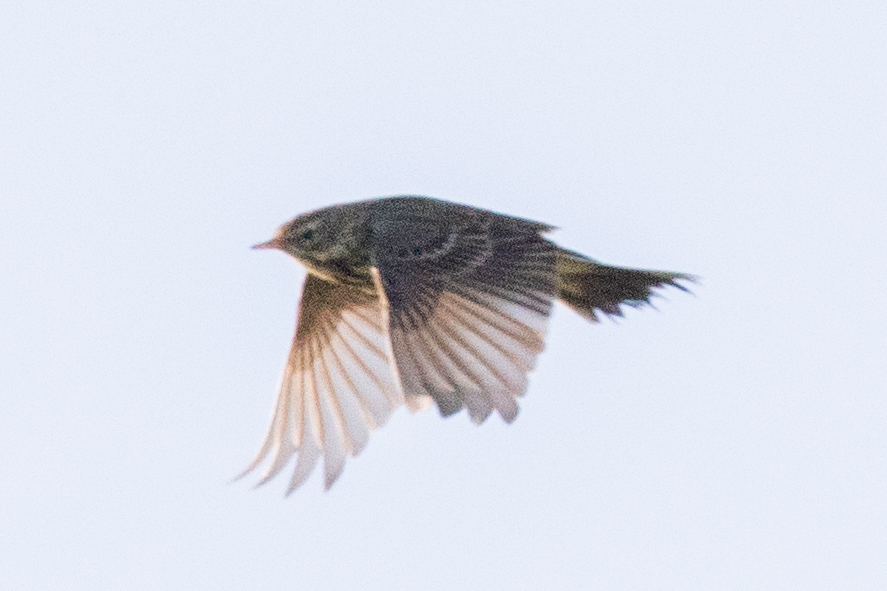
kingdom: Animalia
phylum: Chordata
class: Aves
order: Passeriformes
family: Motacillidae
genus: Anthus
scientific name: Anthus pratensis
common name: Meadow pipit
